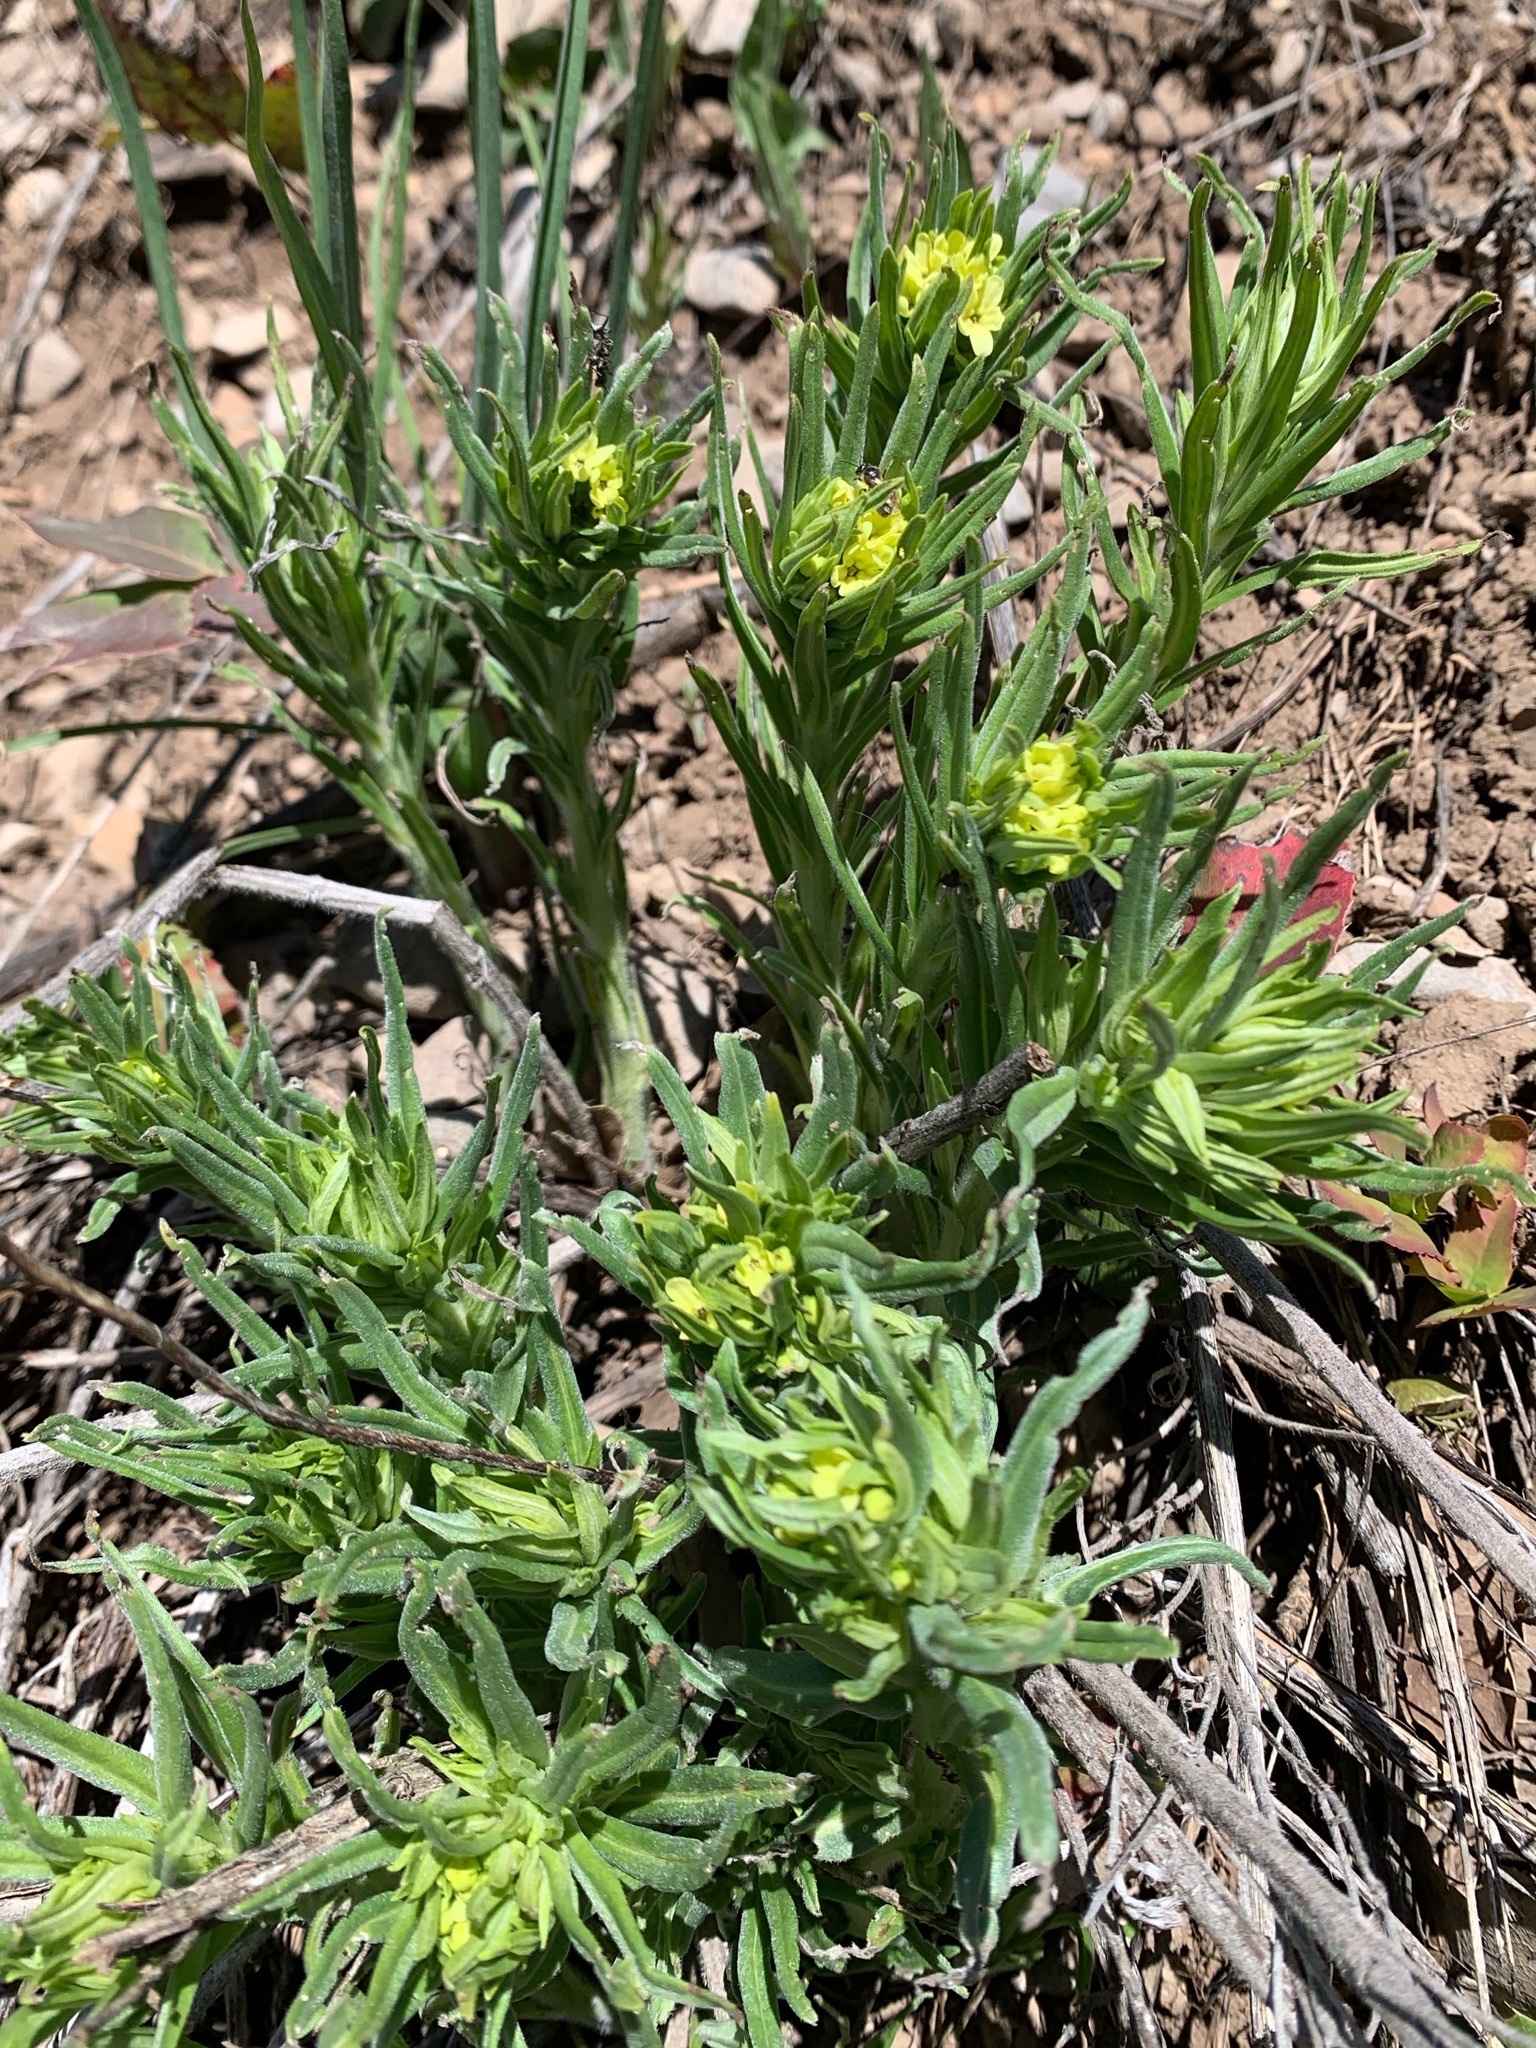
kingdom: Plantae
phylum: Tracheophyta
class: Magnoliopsida
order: Boraginales
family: Boraginaceae
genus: Lithospermum
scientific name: Lithospermum ruderale
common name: Western gromwell
